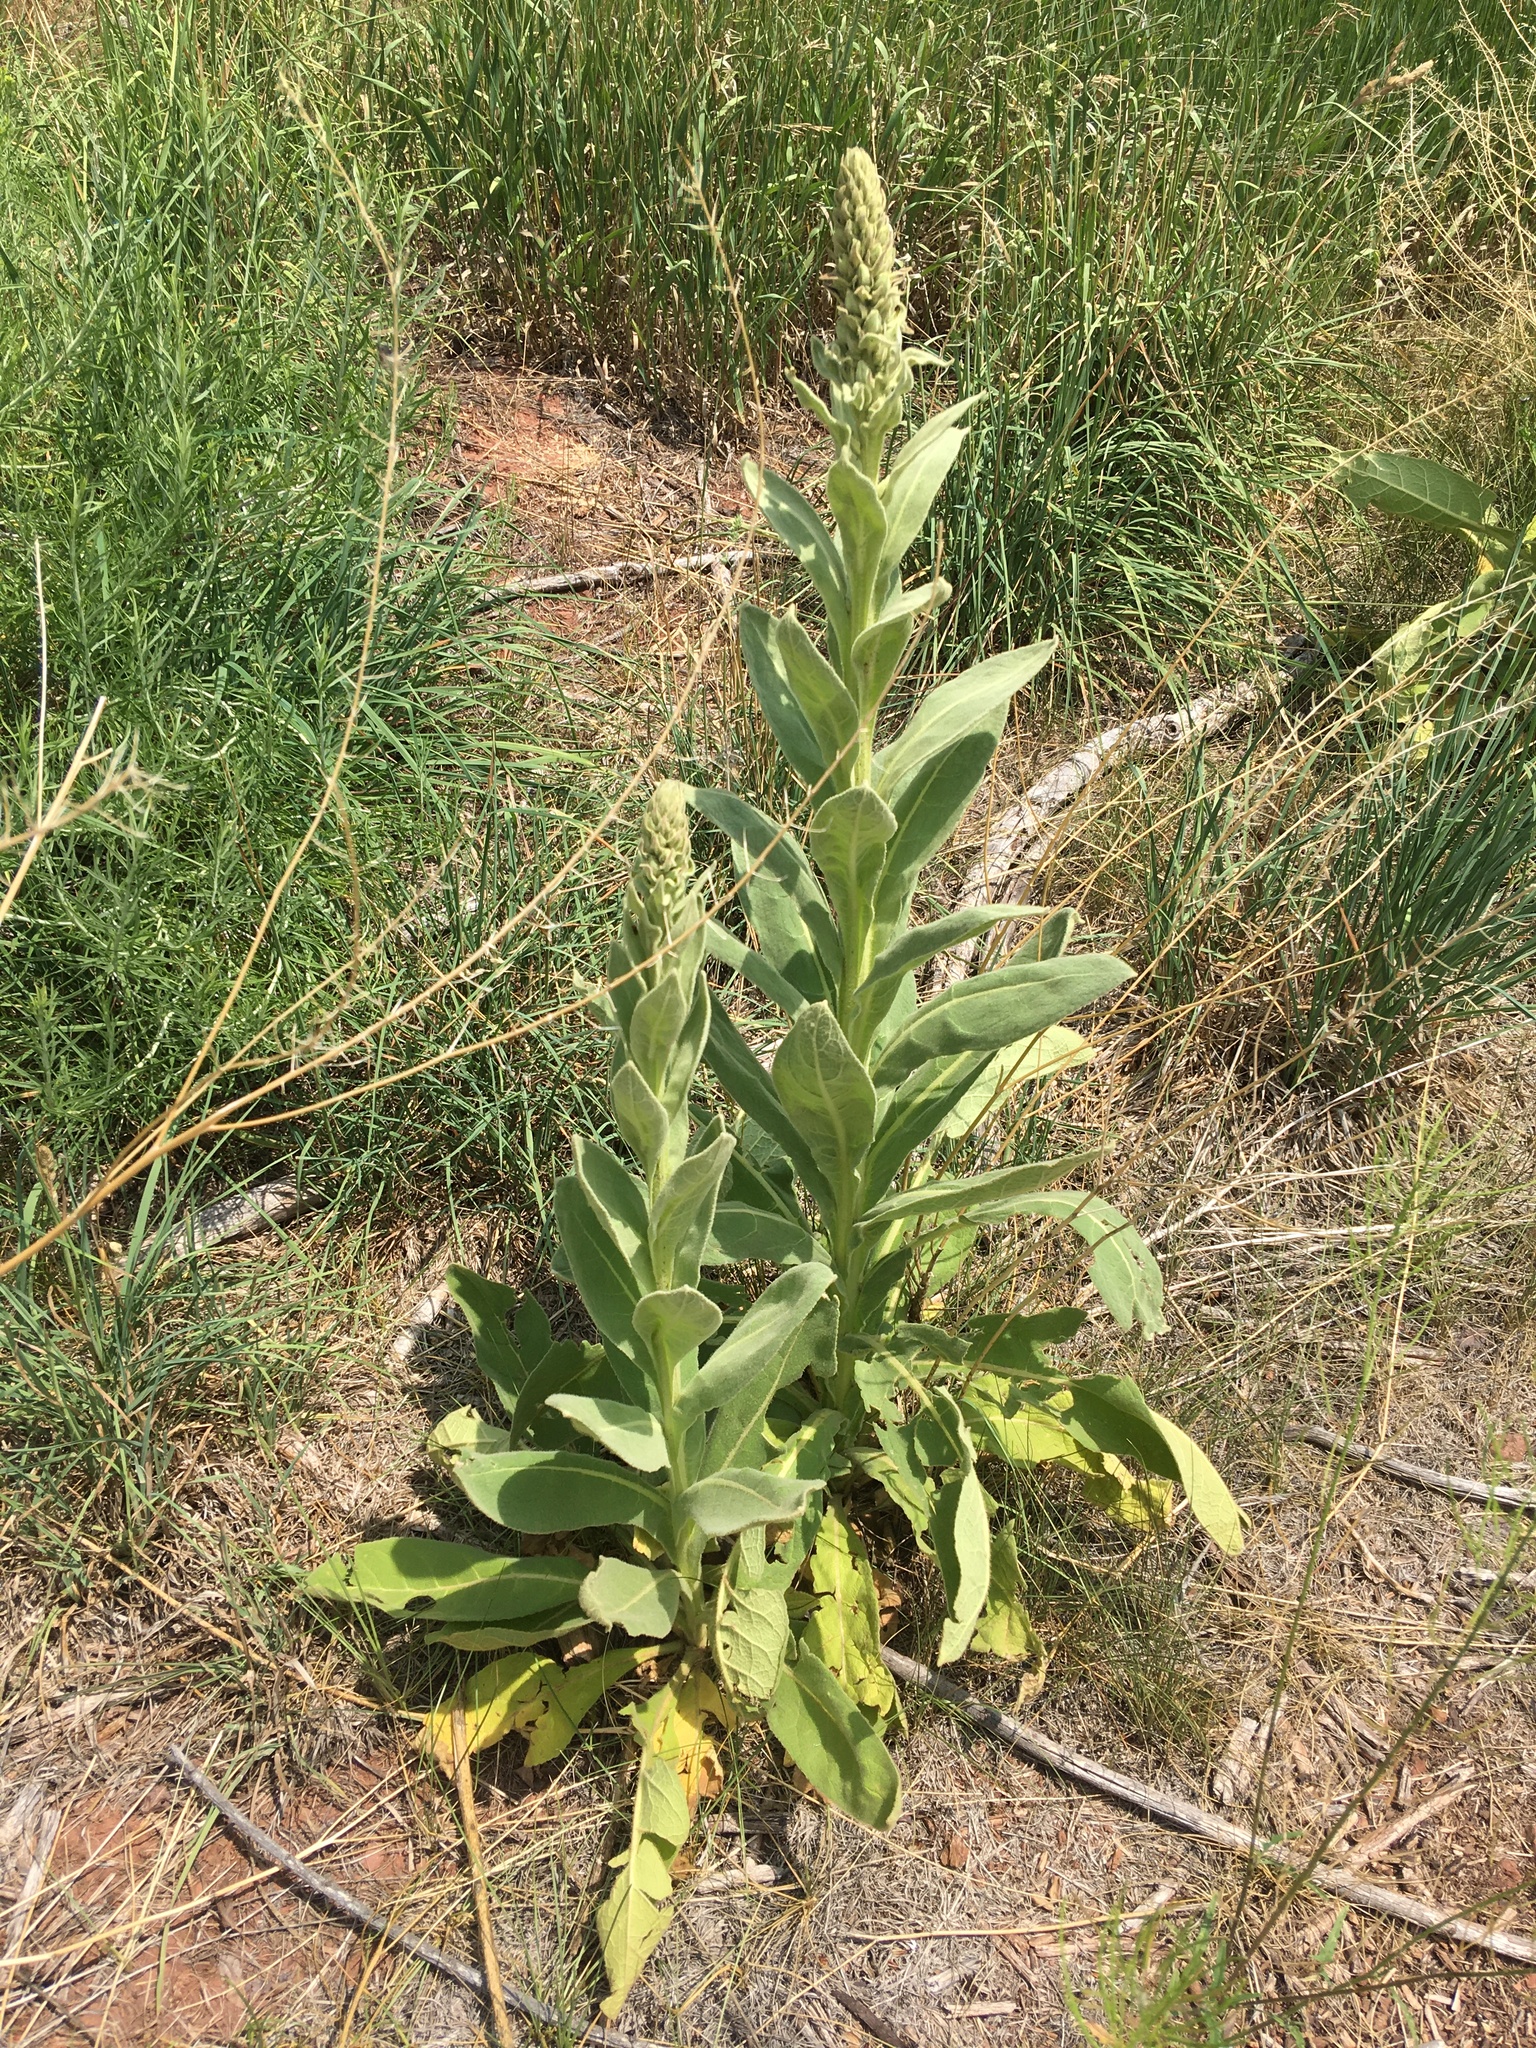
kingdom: Plantae
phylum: Tracheophyta
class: Magnoliopsida
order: Lamiales
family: Scrophulariaceae
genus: Verbascum
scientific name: Verbascum thapsus
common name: Common mullein
